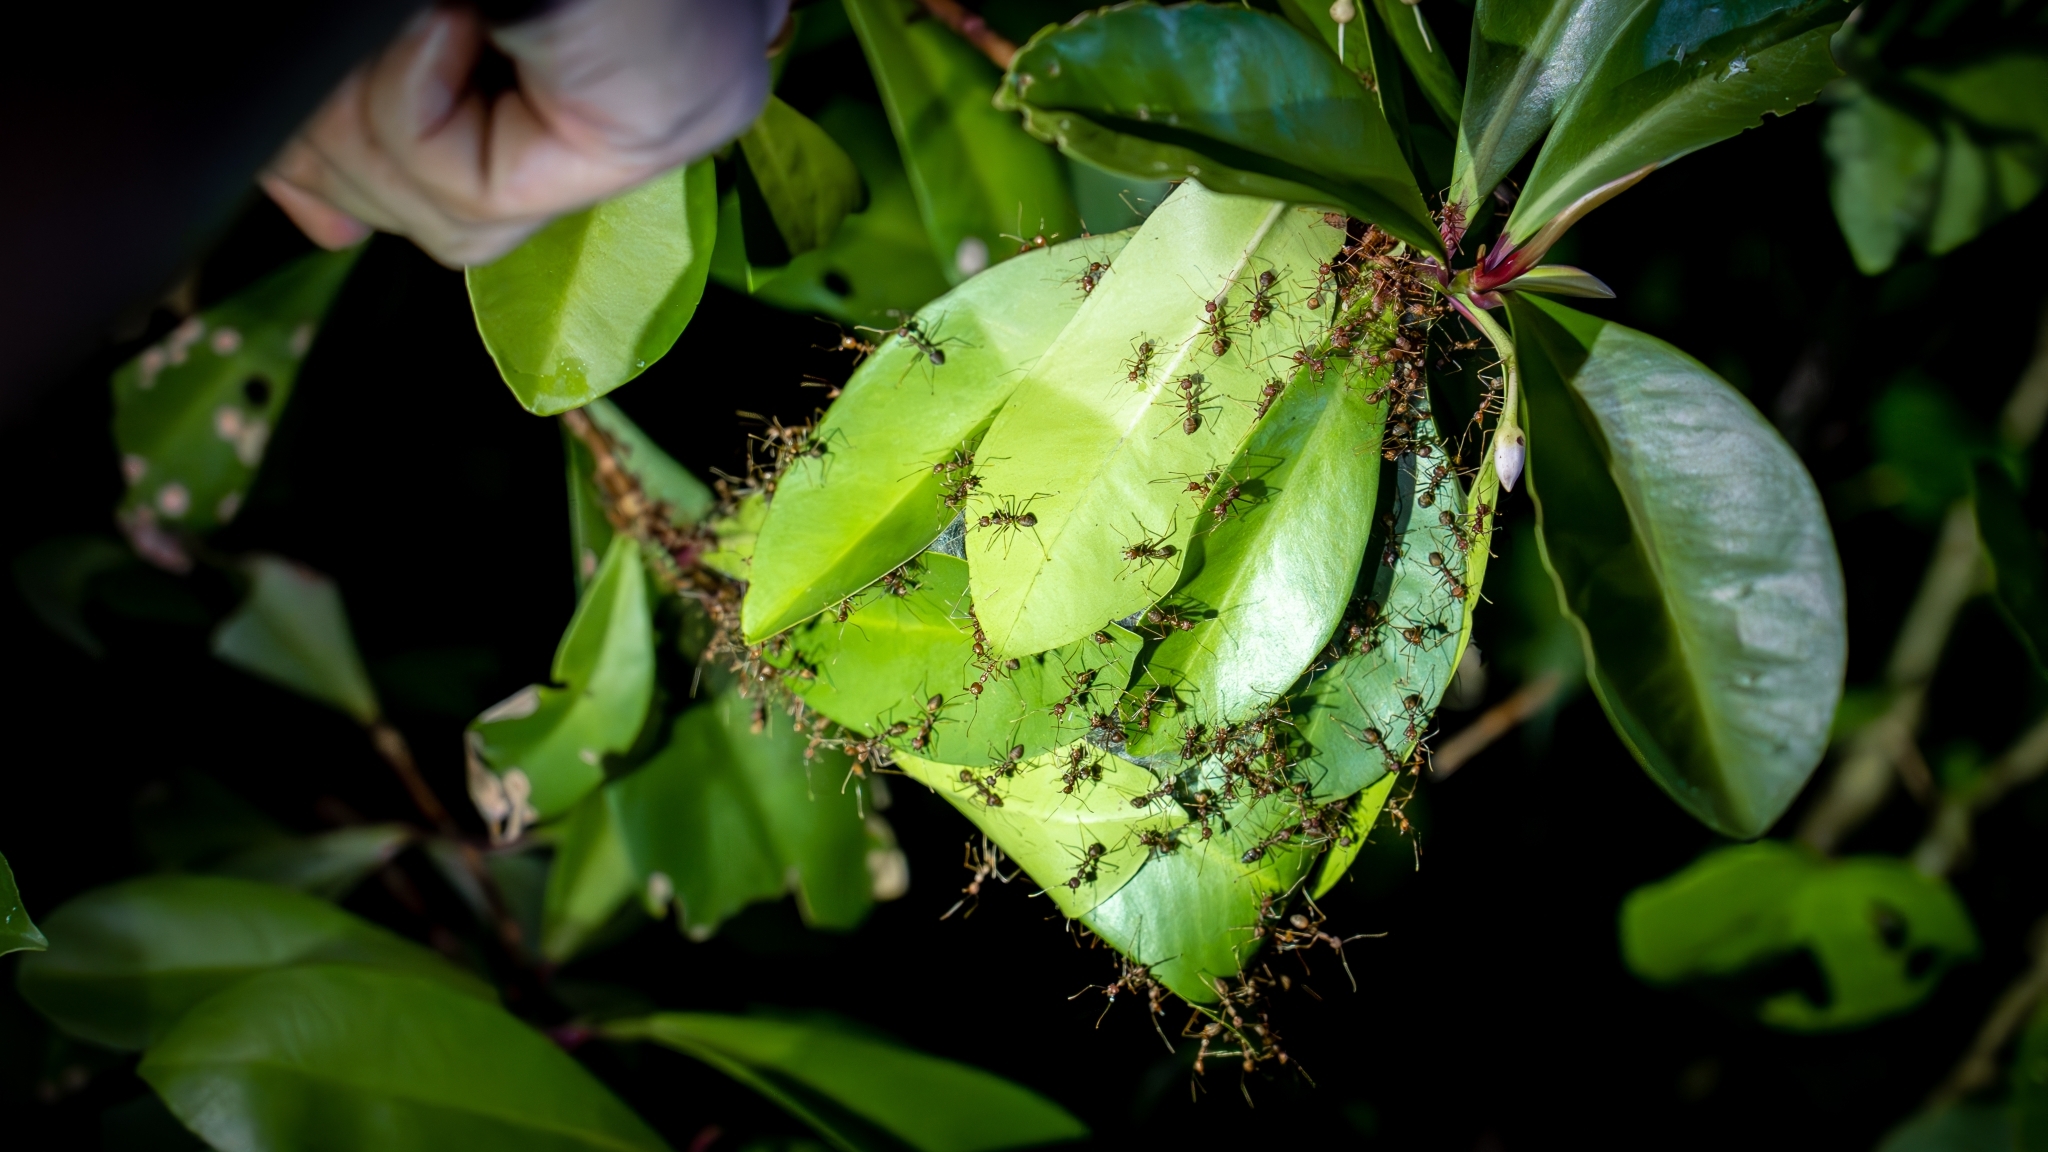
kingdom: Animalia
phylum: Arthropoda
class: Insecta
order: Hymenoptera
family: Formicidae
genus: Oecophylla
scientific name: Oecophylla smaragdina
